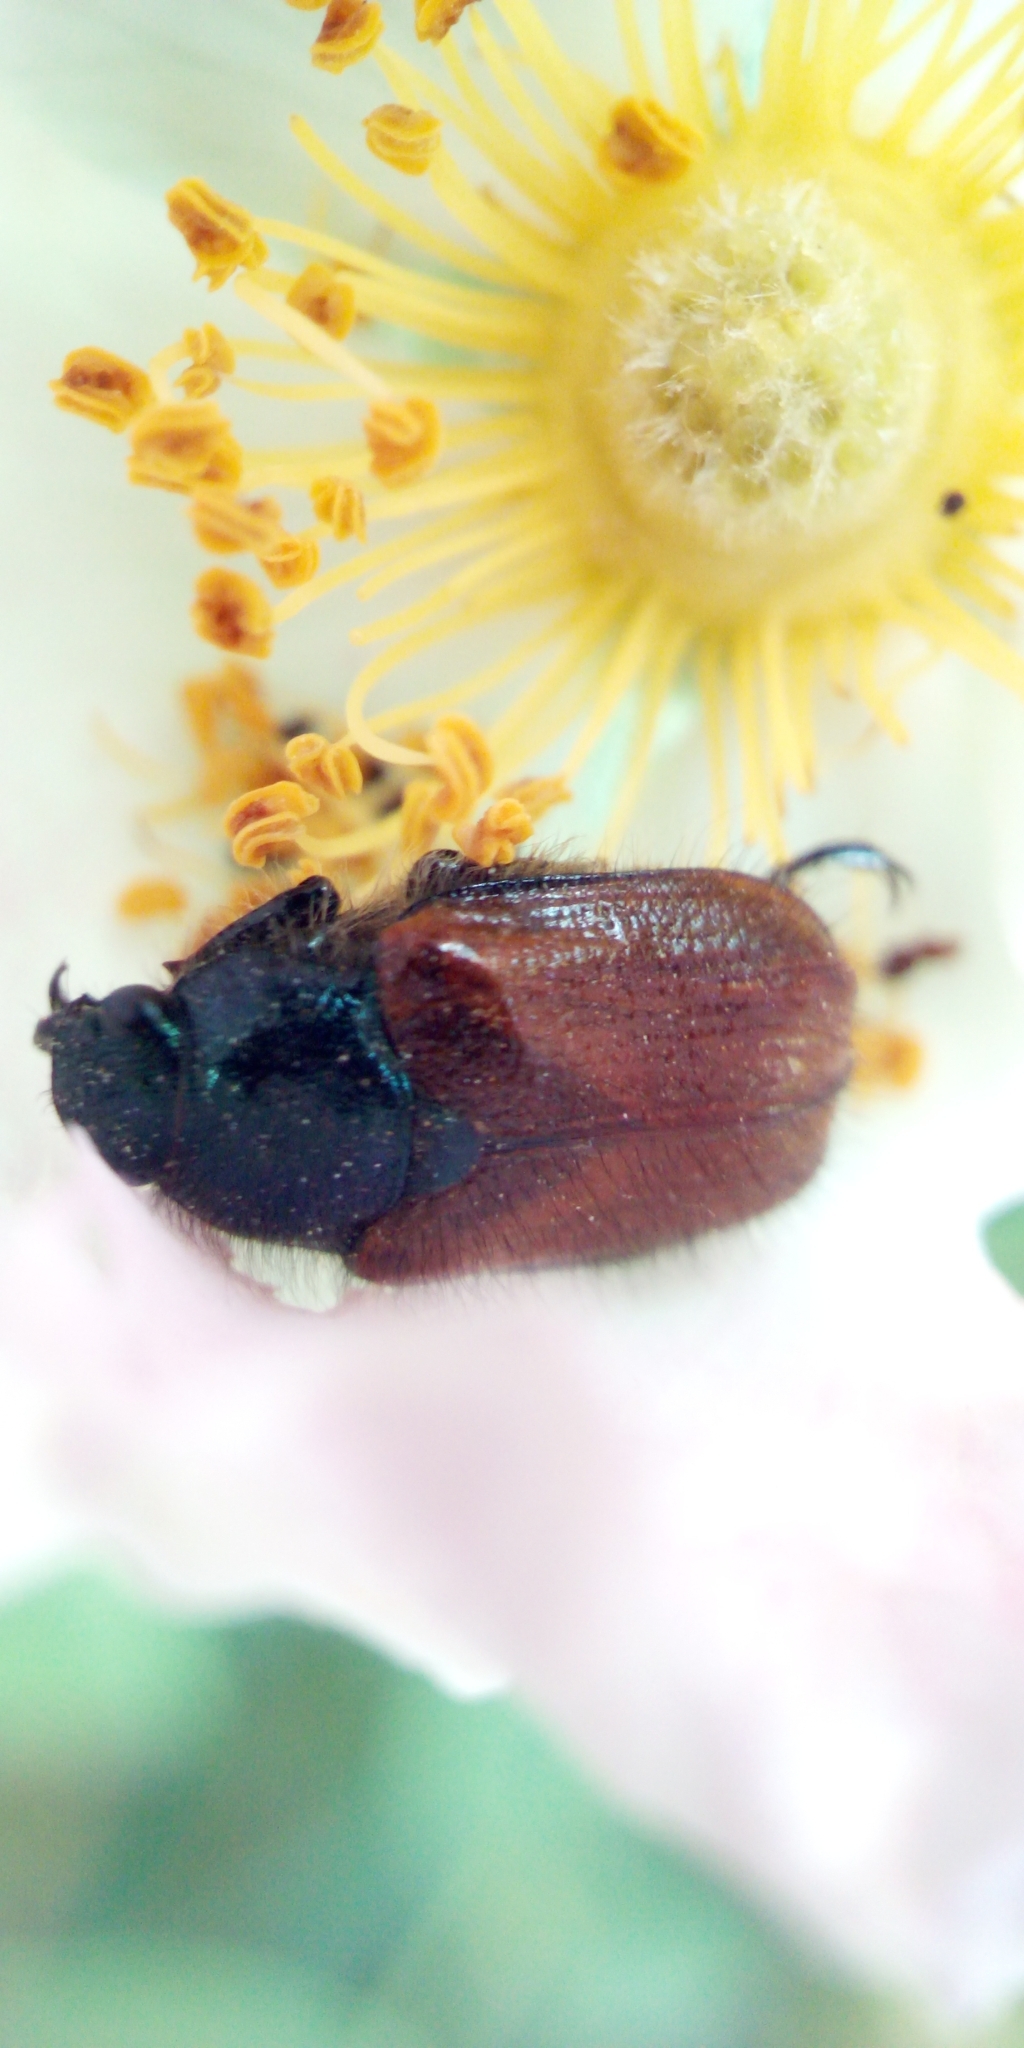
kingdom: Animalia
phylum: Arthropoda
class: Insecta
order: Coleoptera
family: Scarabaeidae
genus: Phyllopertha
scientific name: Phyllopertha horticola
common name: Garden chafer
